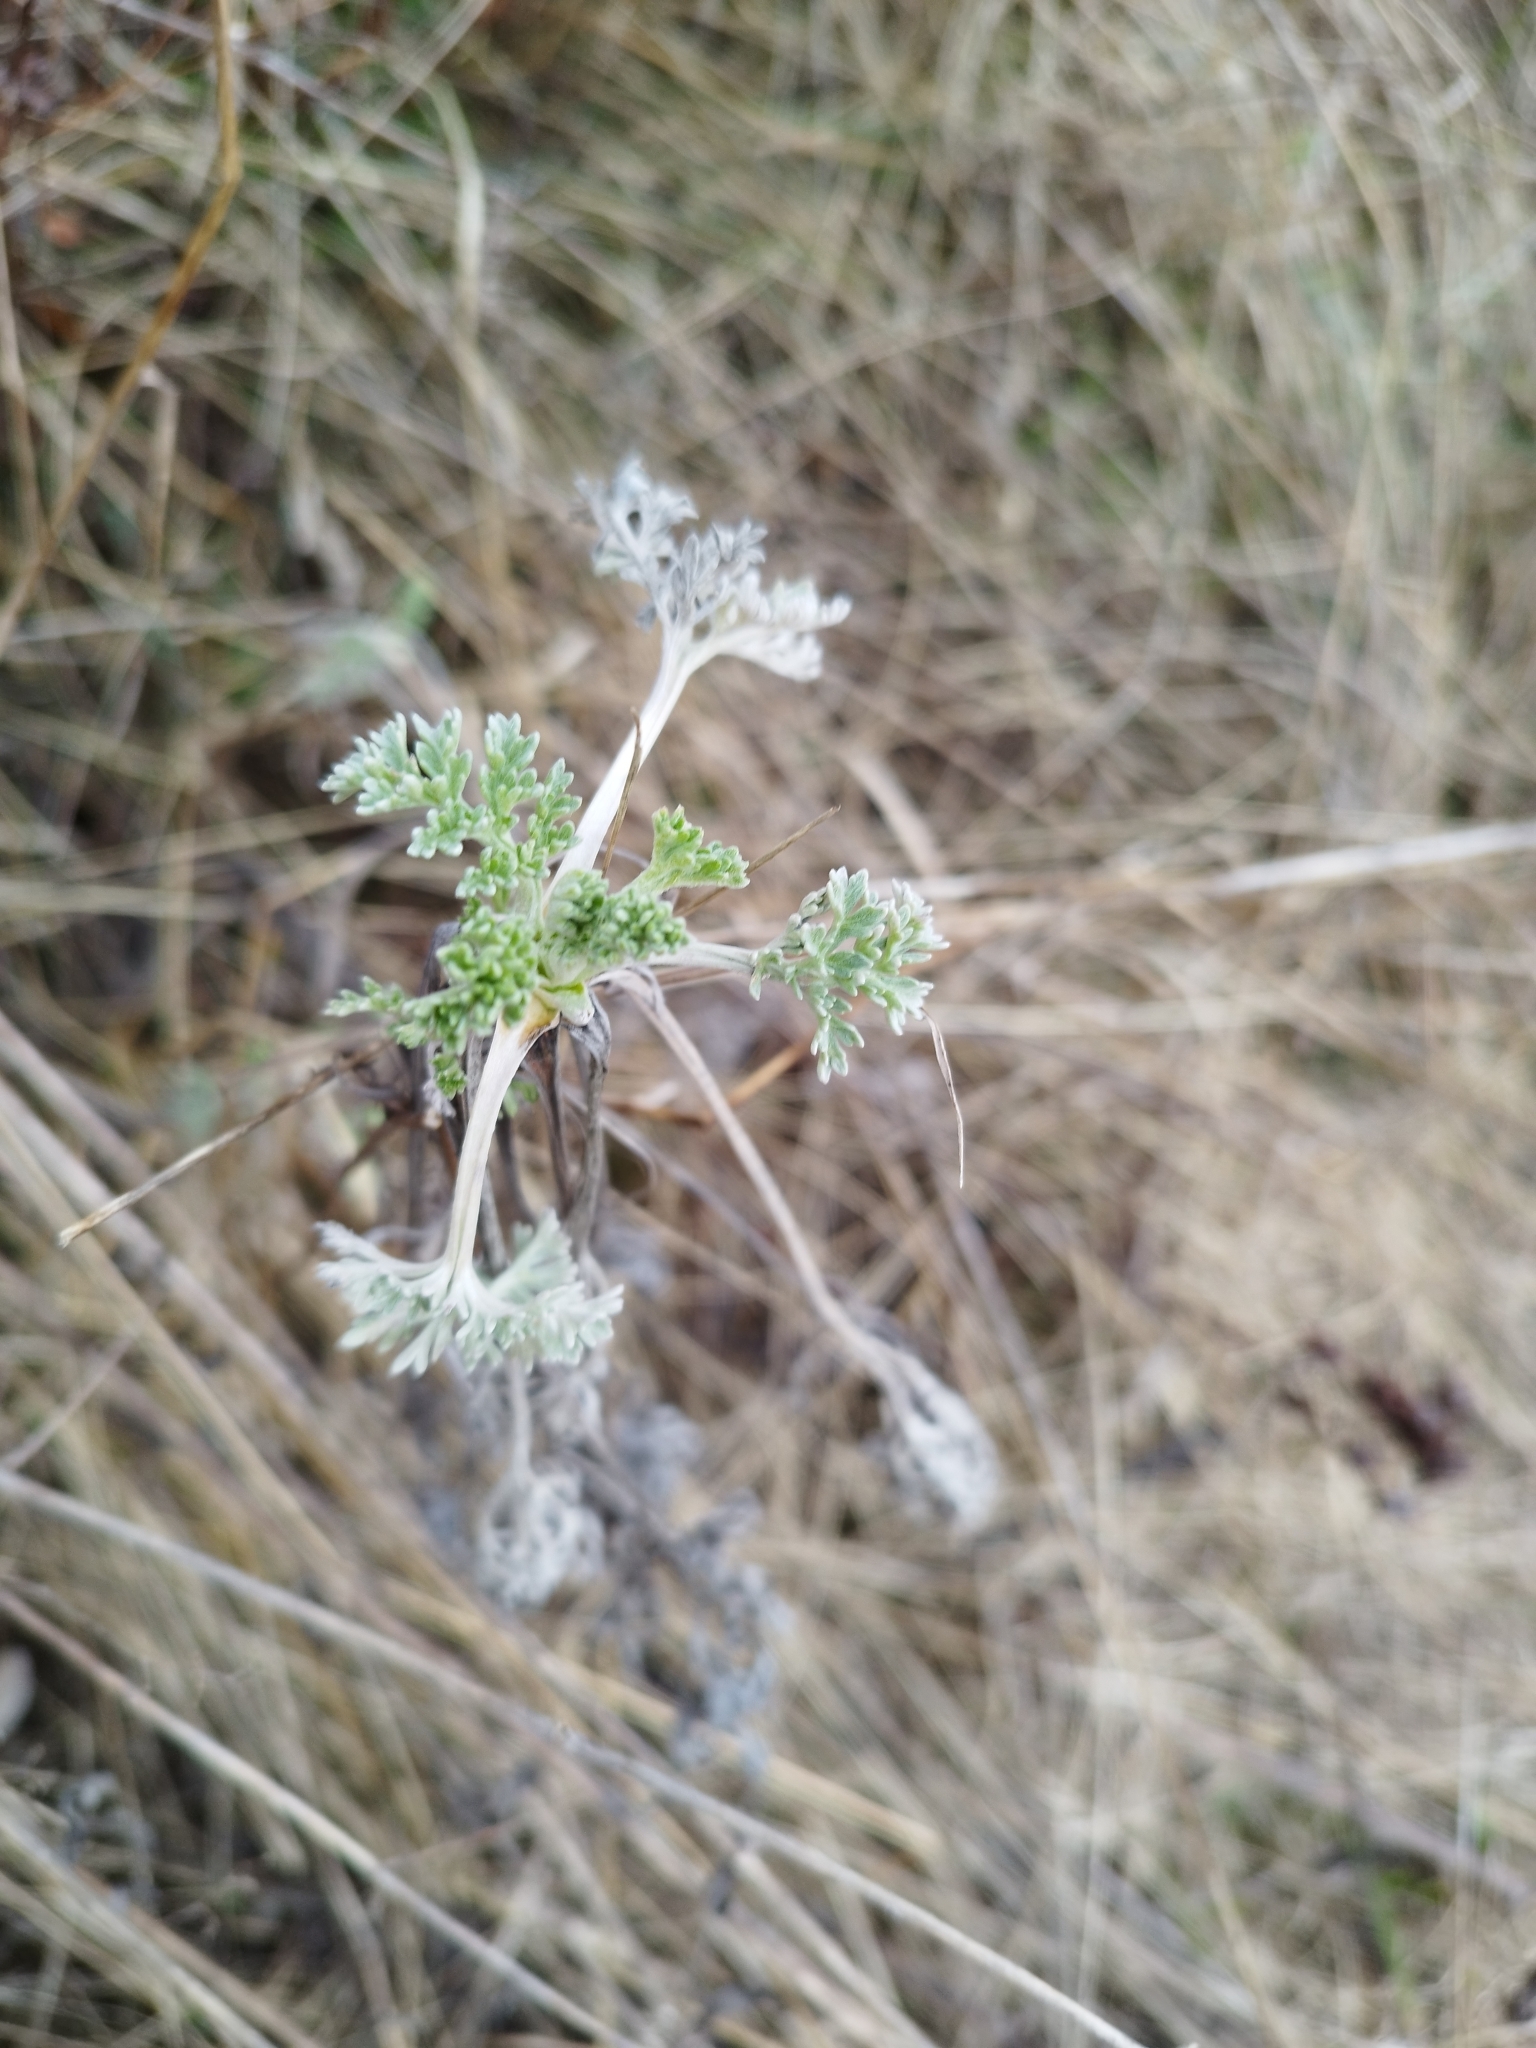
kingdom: Plantae
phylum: Tracheophyta
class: Magnoliopsida
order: Asterales
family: Asteraceae
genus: Artemisia
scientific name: Artemisia absinthium
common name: Wormwood
